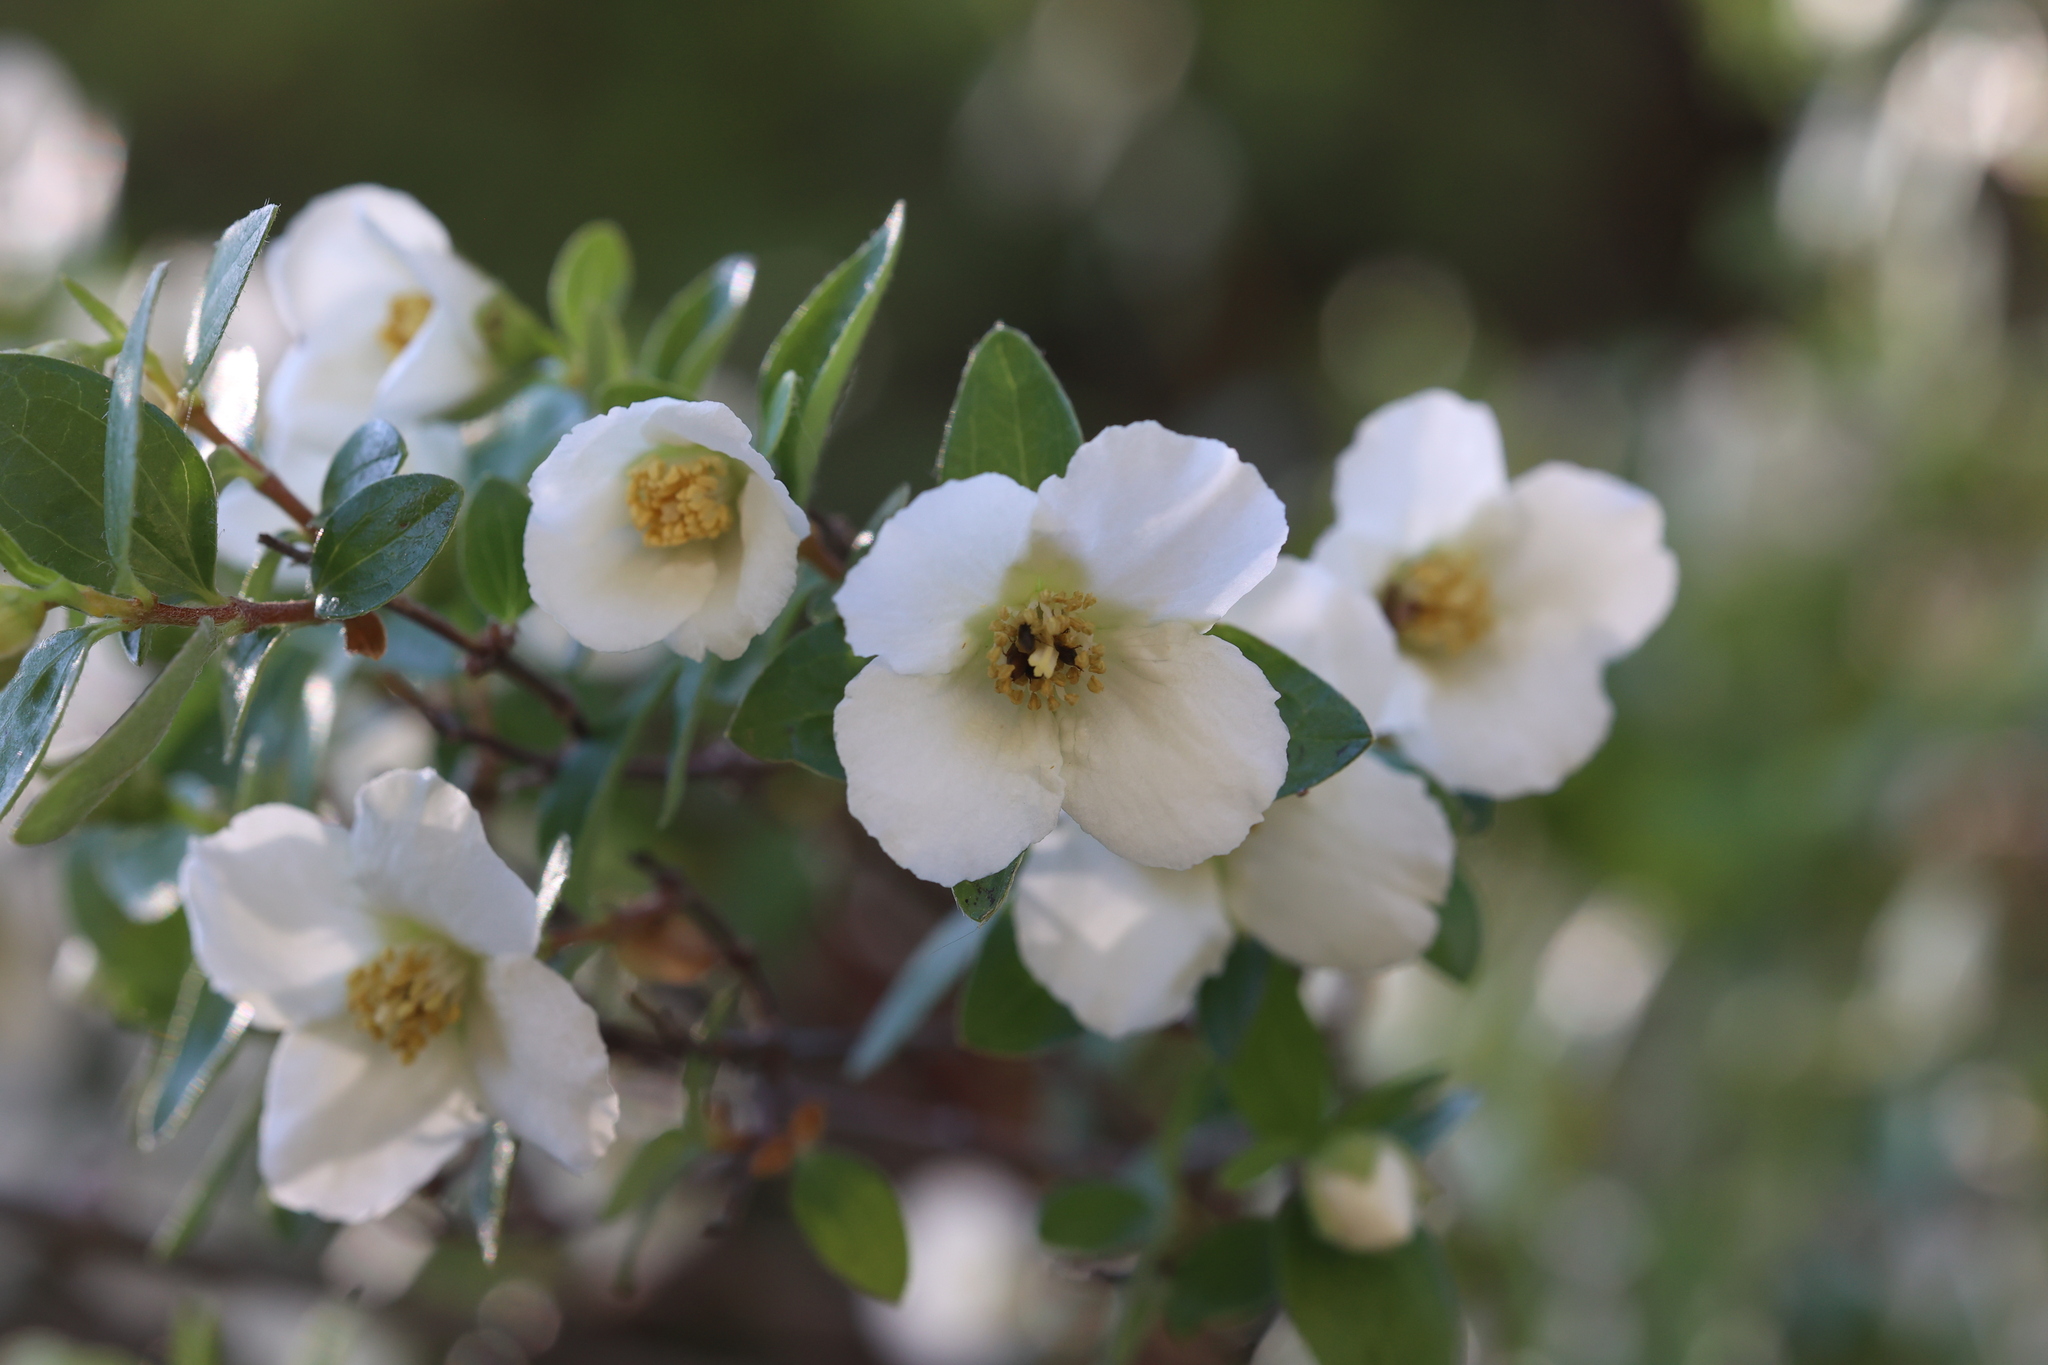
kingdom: Plantae
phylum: Tracheophyta
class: Magnoliopsida
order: Cornales
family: Hydrangeaceae
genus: Philadelphus
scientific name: Philadelphus microphyllus
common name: Desert mock orange
